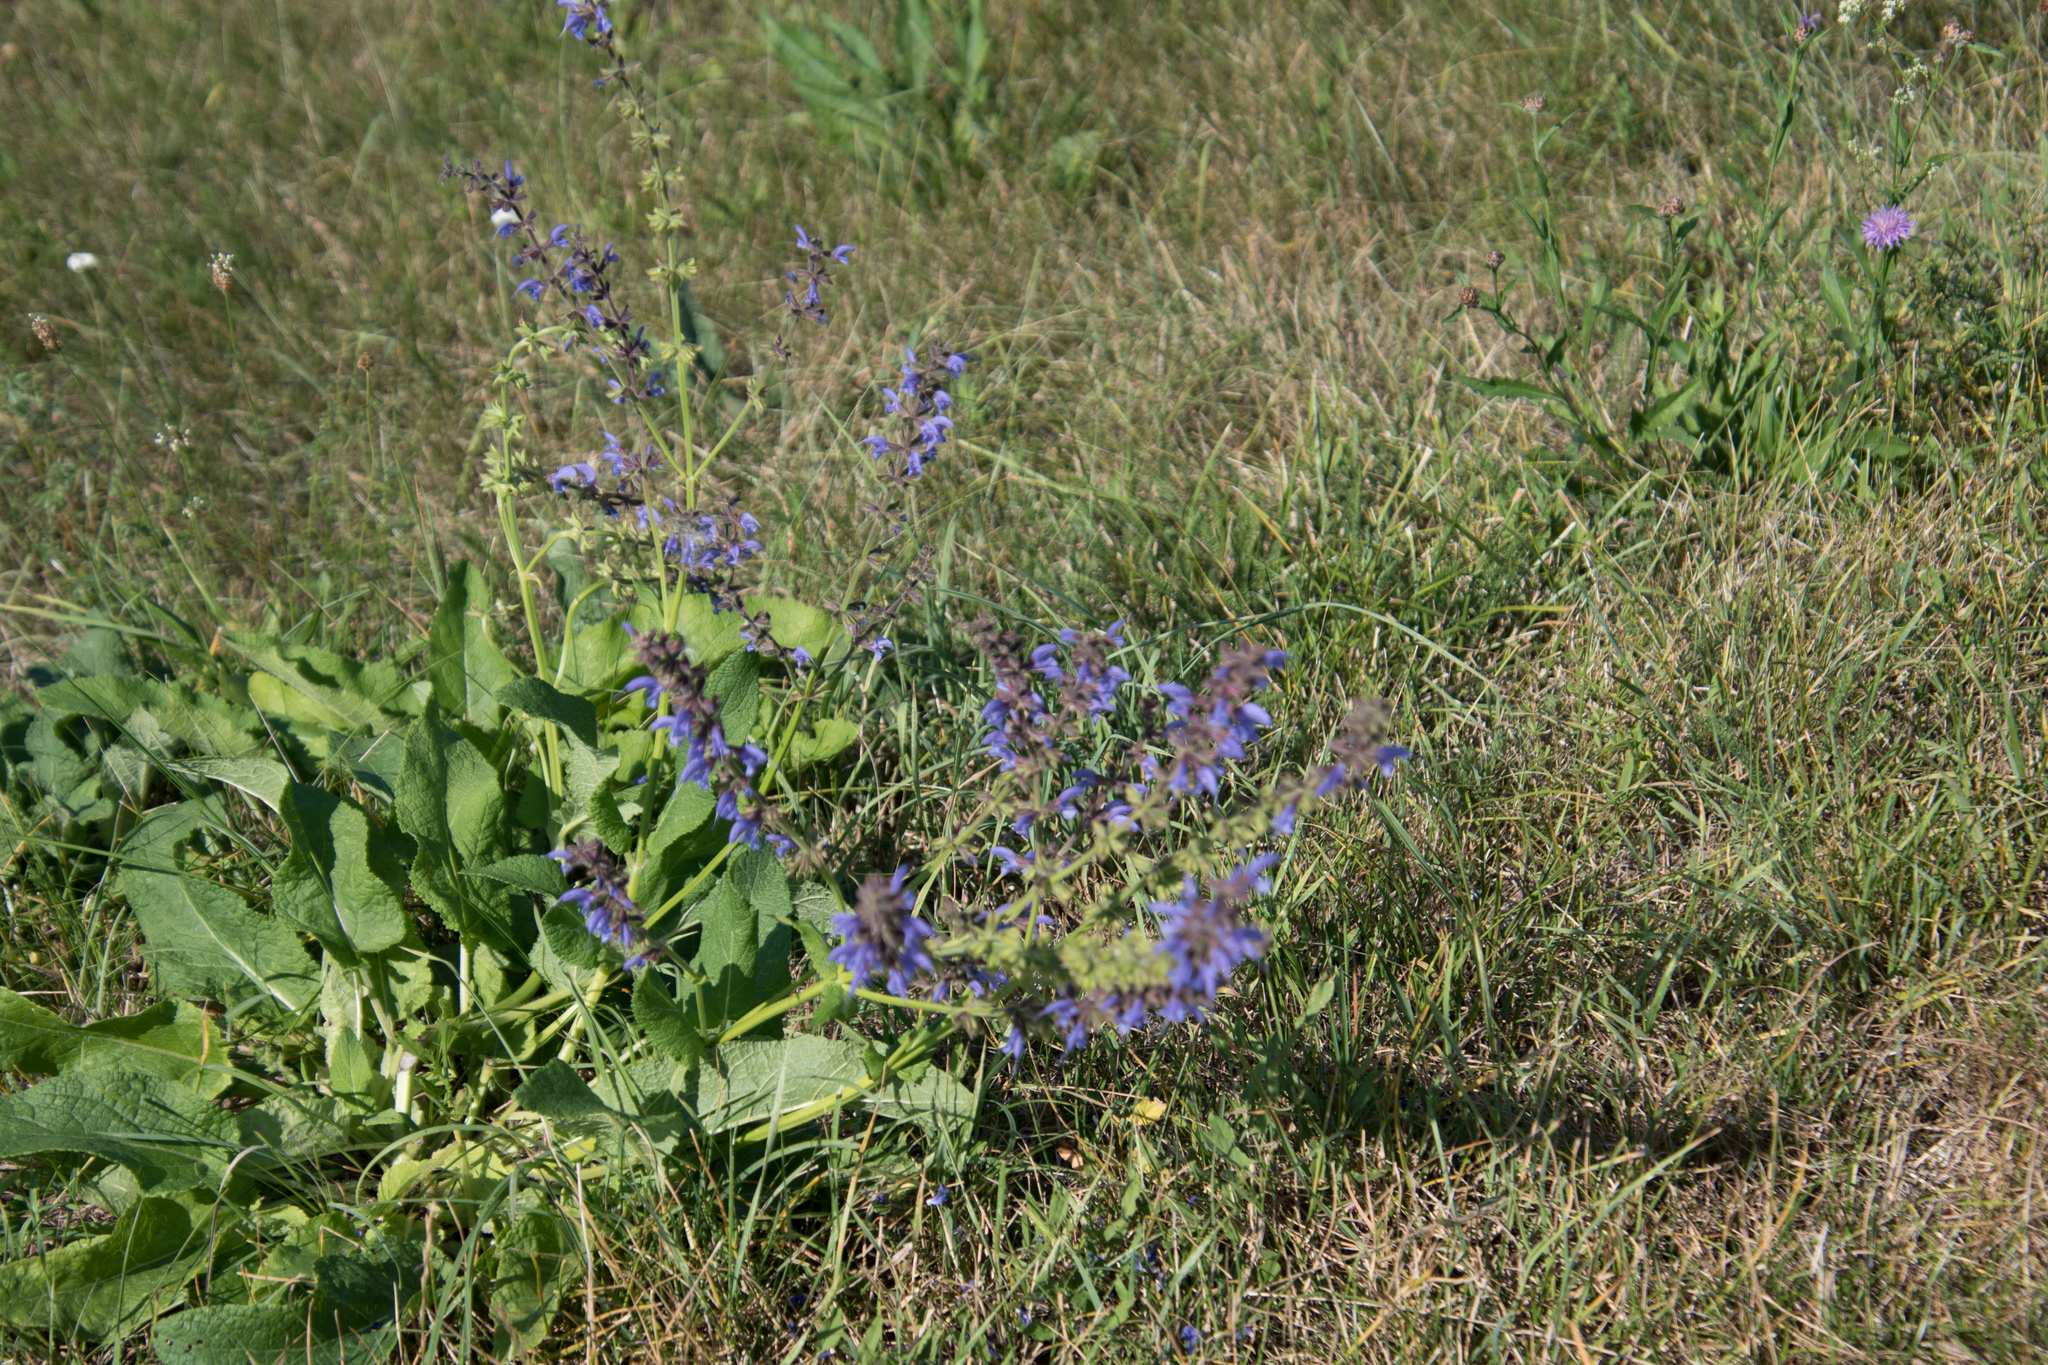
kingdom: Plantae
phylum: Tracheophyta
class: Magnoliopsida
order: Lamiales
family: Lamiaceae
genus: Salvia
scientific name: Salvia pratensis
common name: Meadow sage
